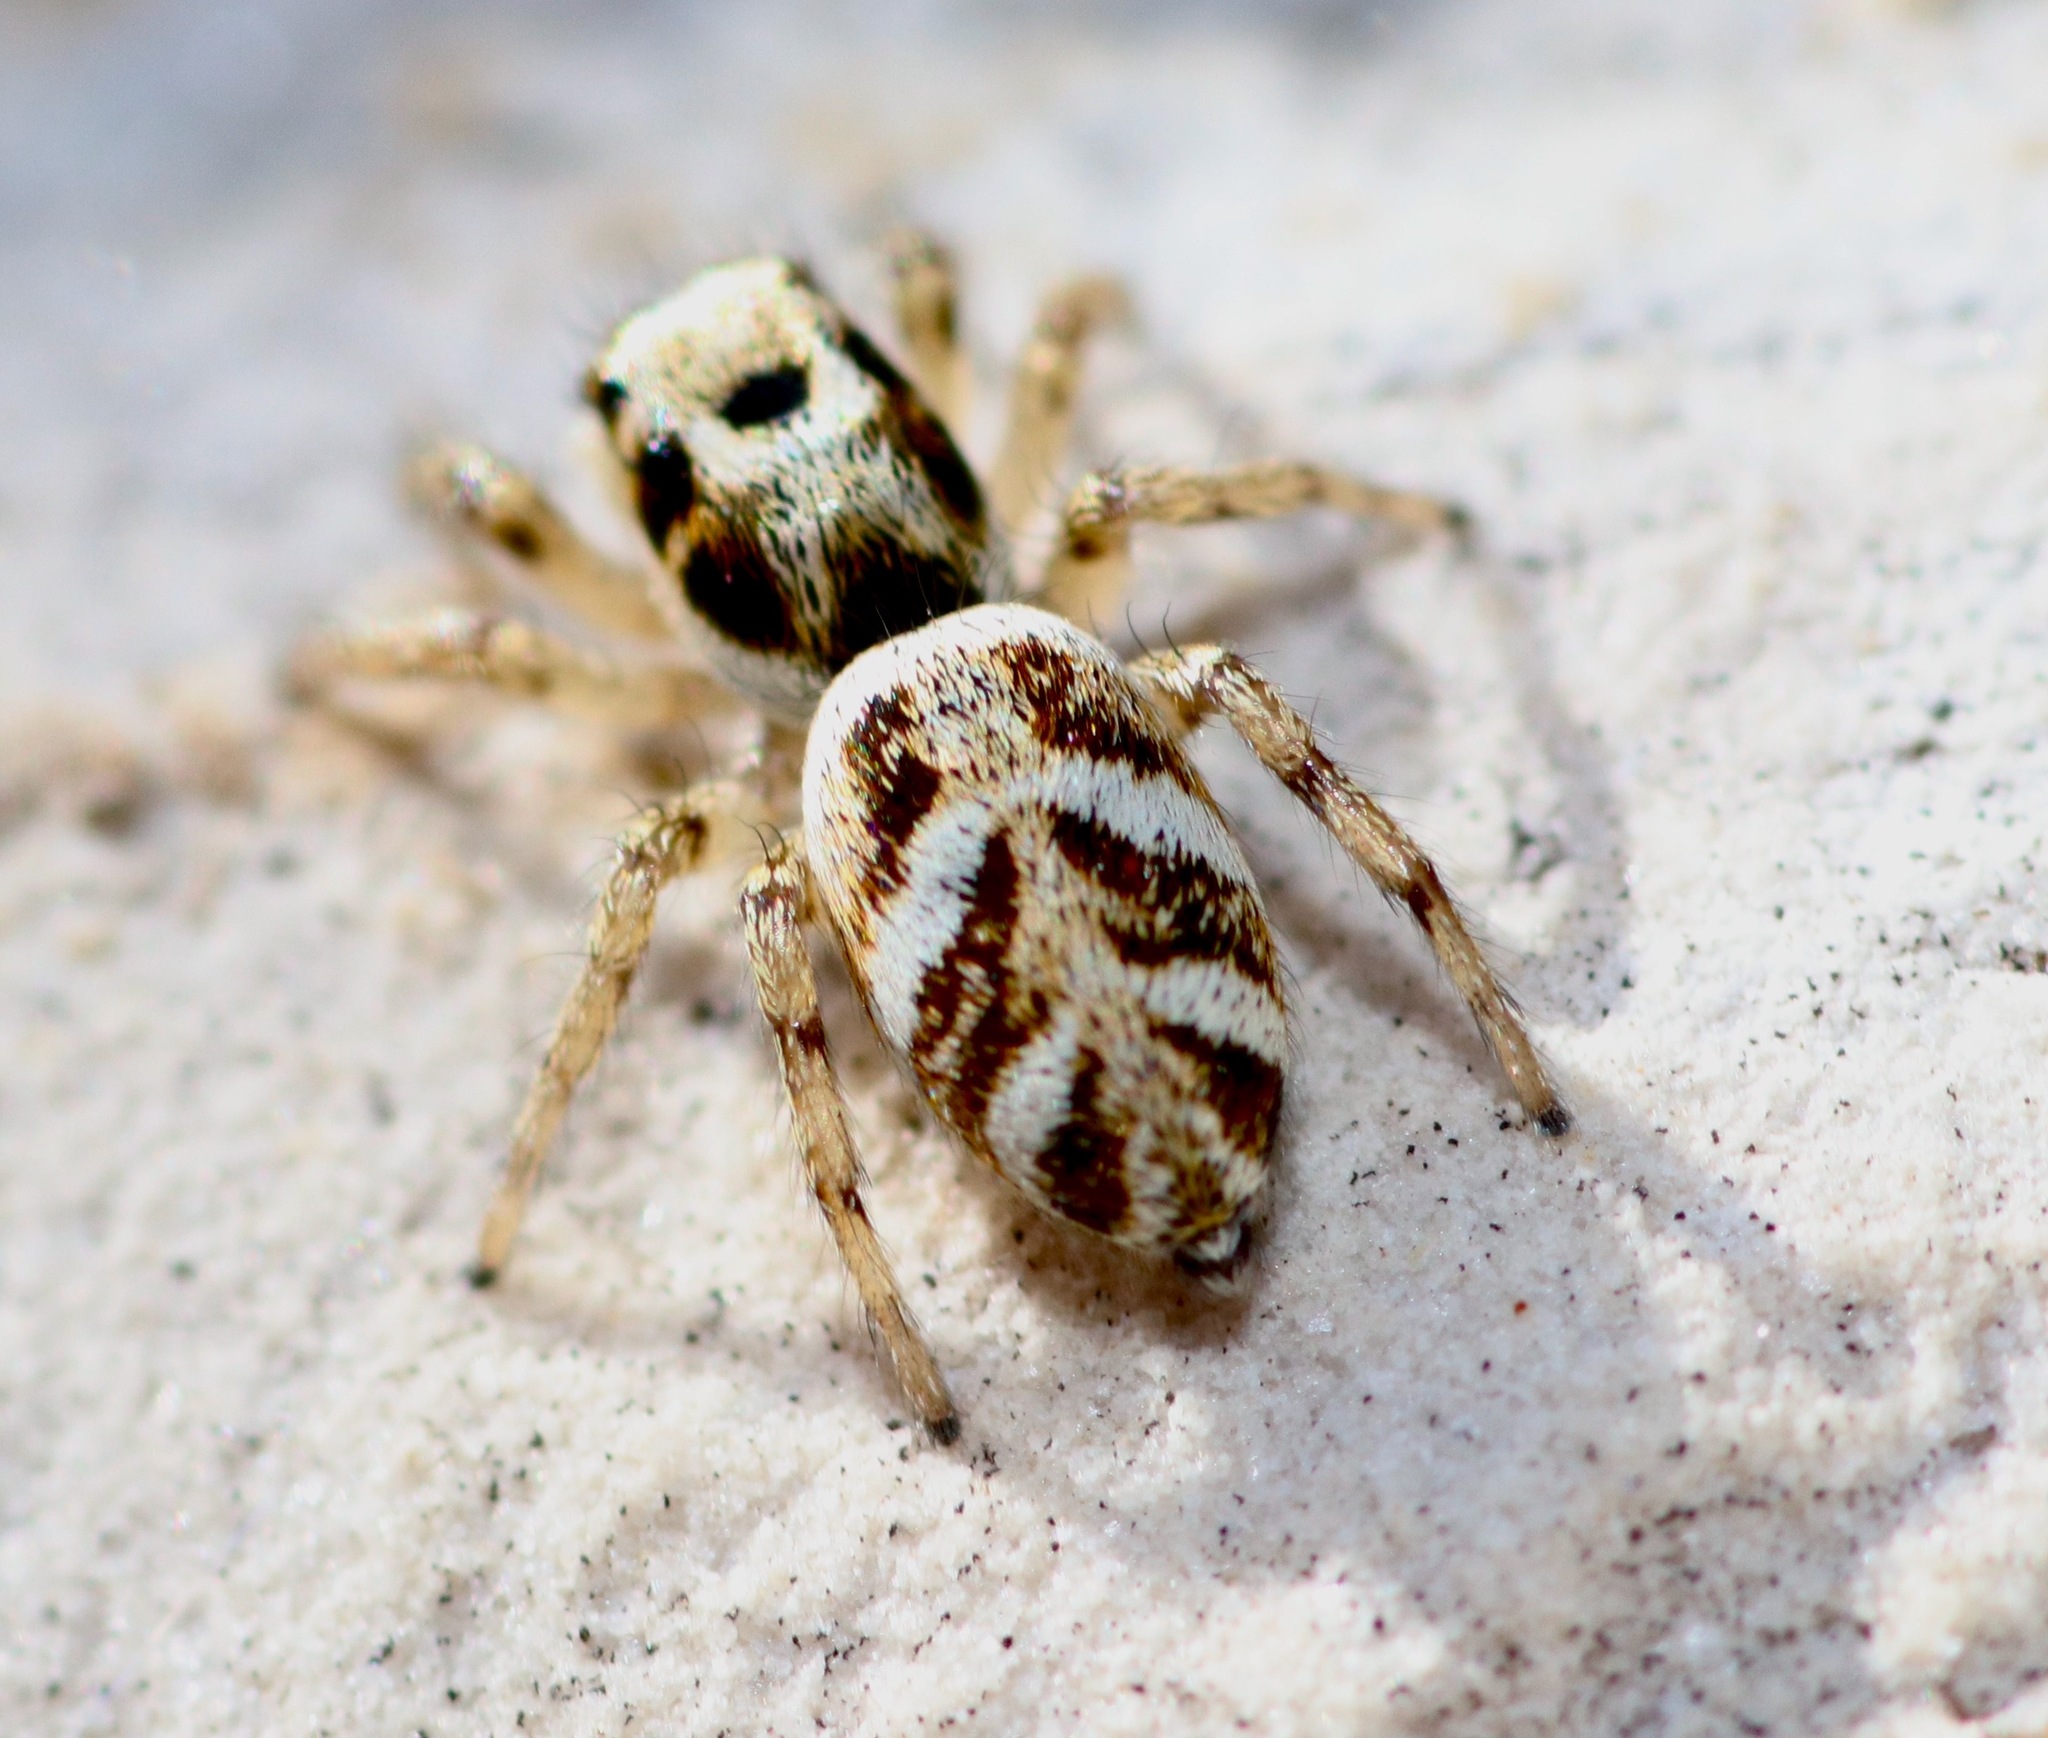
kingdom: Animalia
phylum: Arthropoda
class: Arachnida
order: Araneae
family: Salticidae
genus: Salticus
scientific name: Salticus scenicus
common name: Zebra jumper
